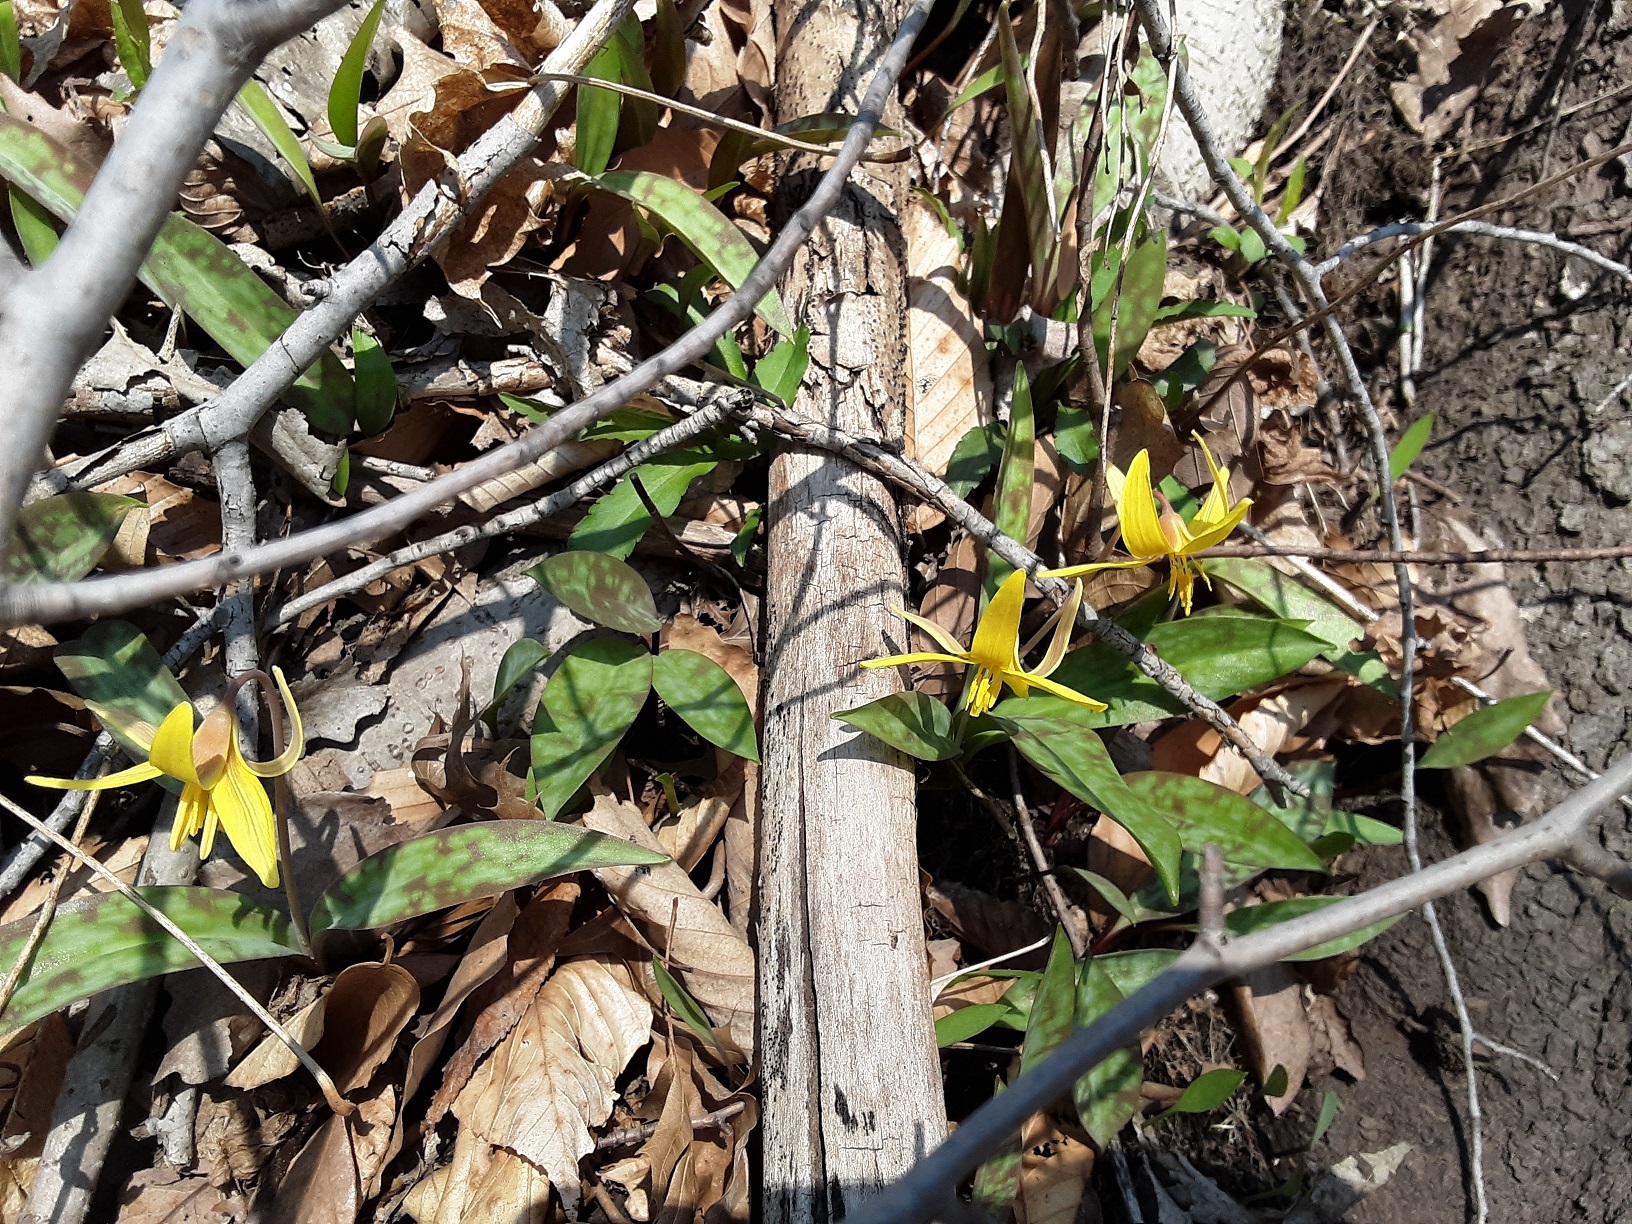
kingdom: Plantae
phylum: Tracheophyta
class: Liliopsida
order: Liliales
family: Liliaceae
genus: Erythronium
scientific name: Erythronium americanum
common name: Yellow adder's-tongue
